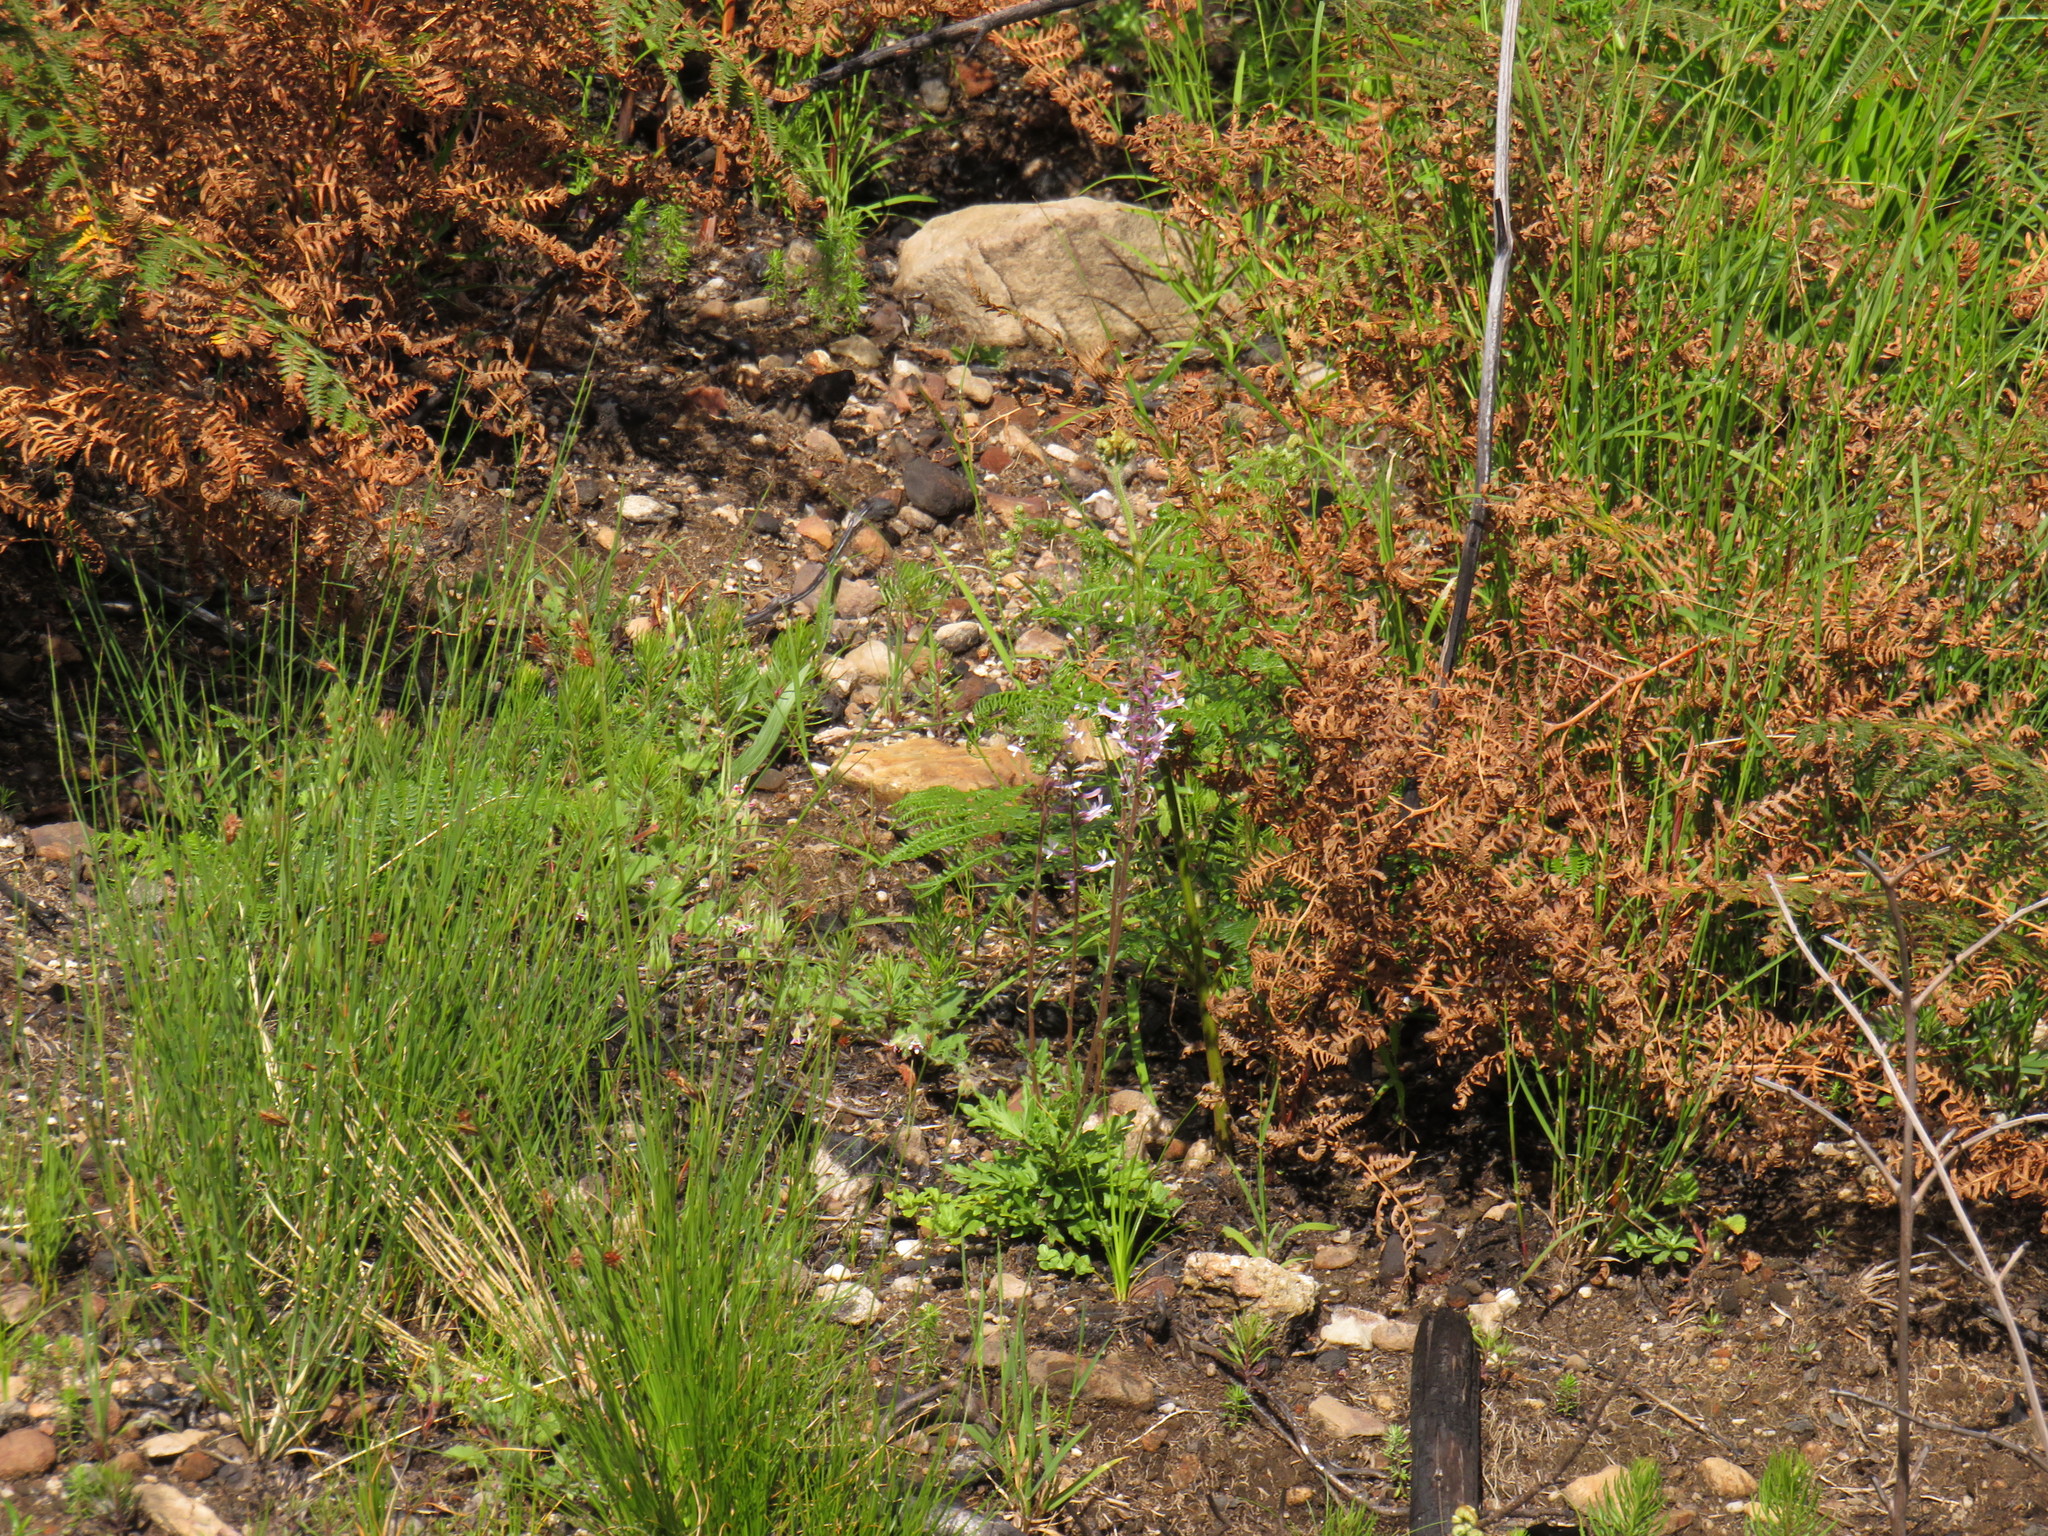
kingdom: Plantae
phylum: Tracheophyta
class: Magnoliopsida
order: Asterales
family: Campanulaceae
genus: Cyphia
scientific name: Cyphia bulbosa
